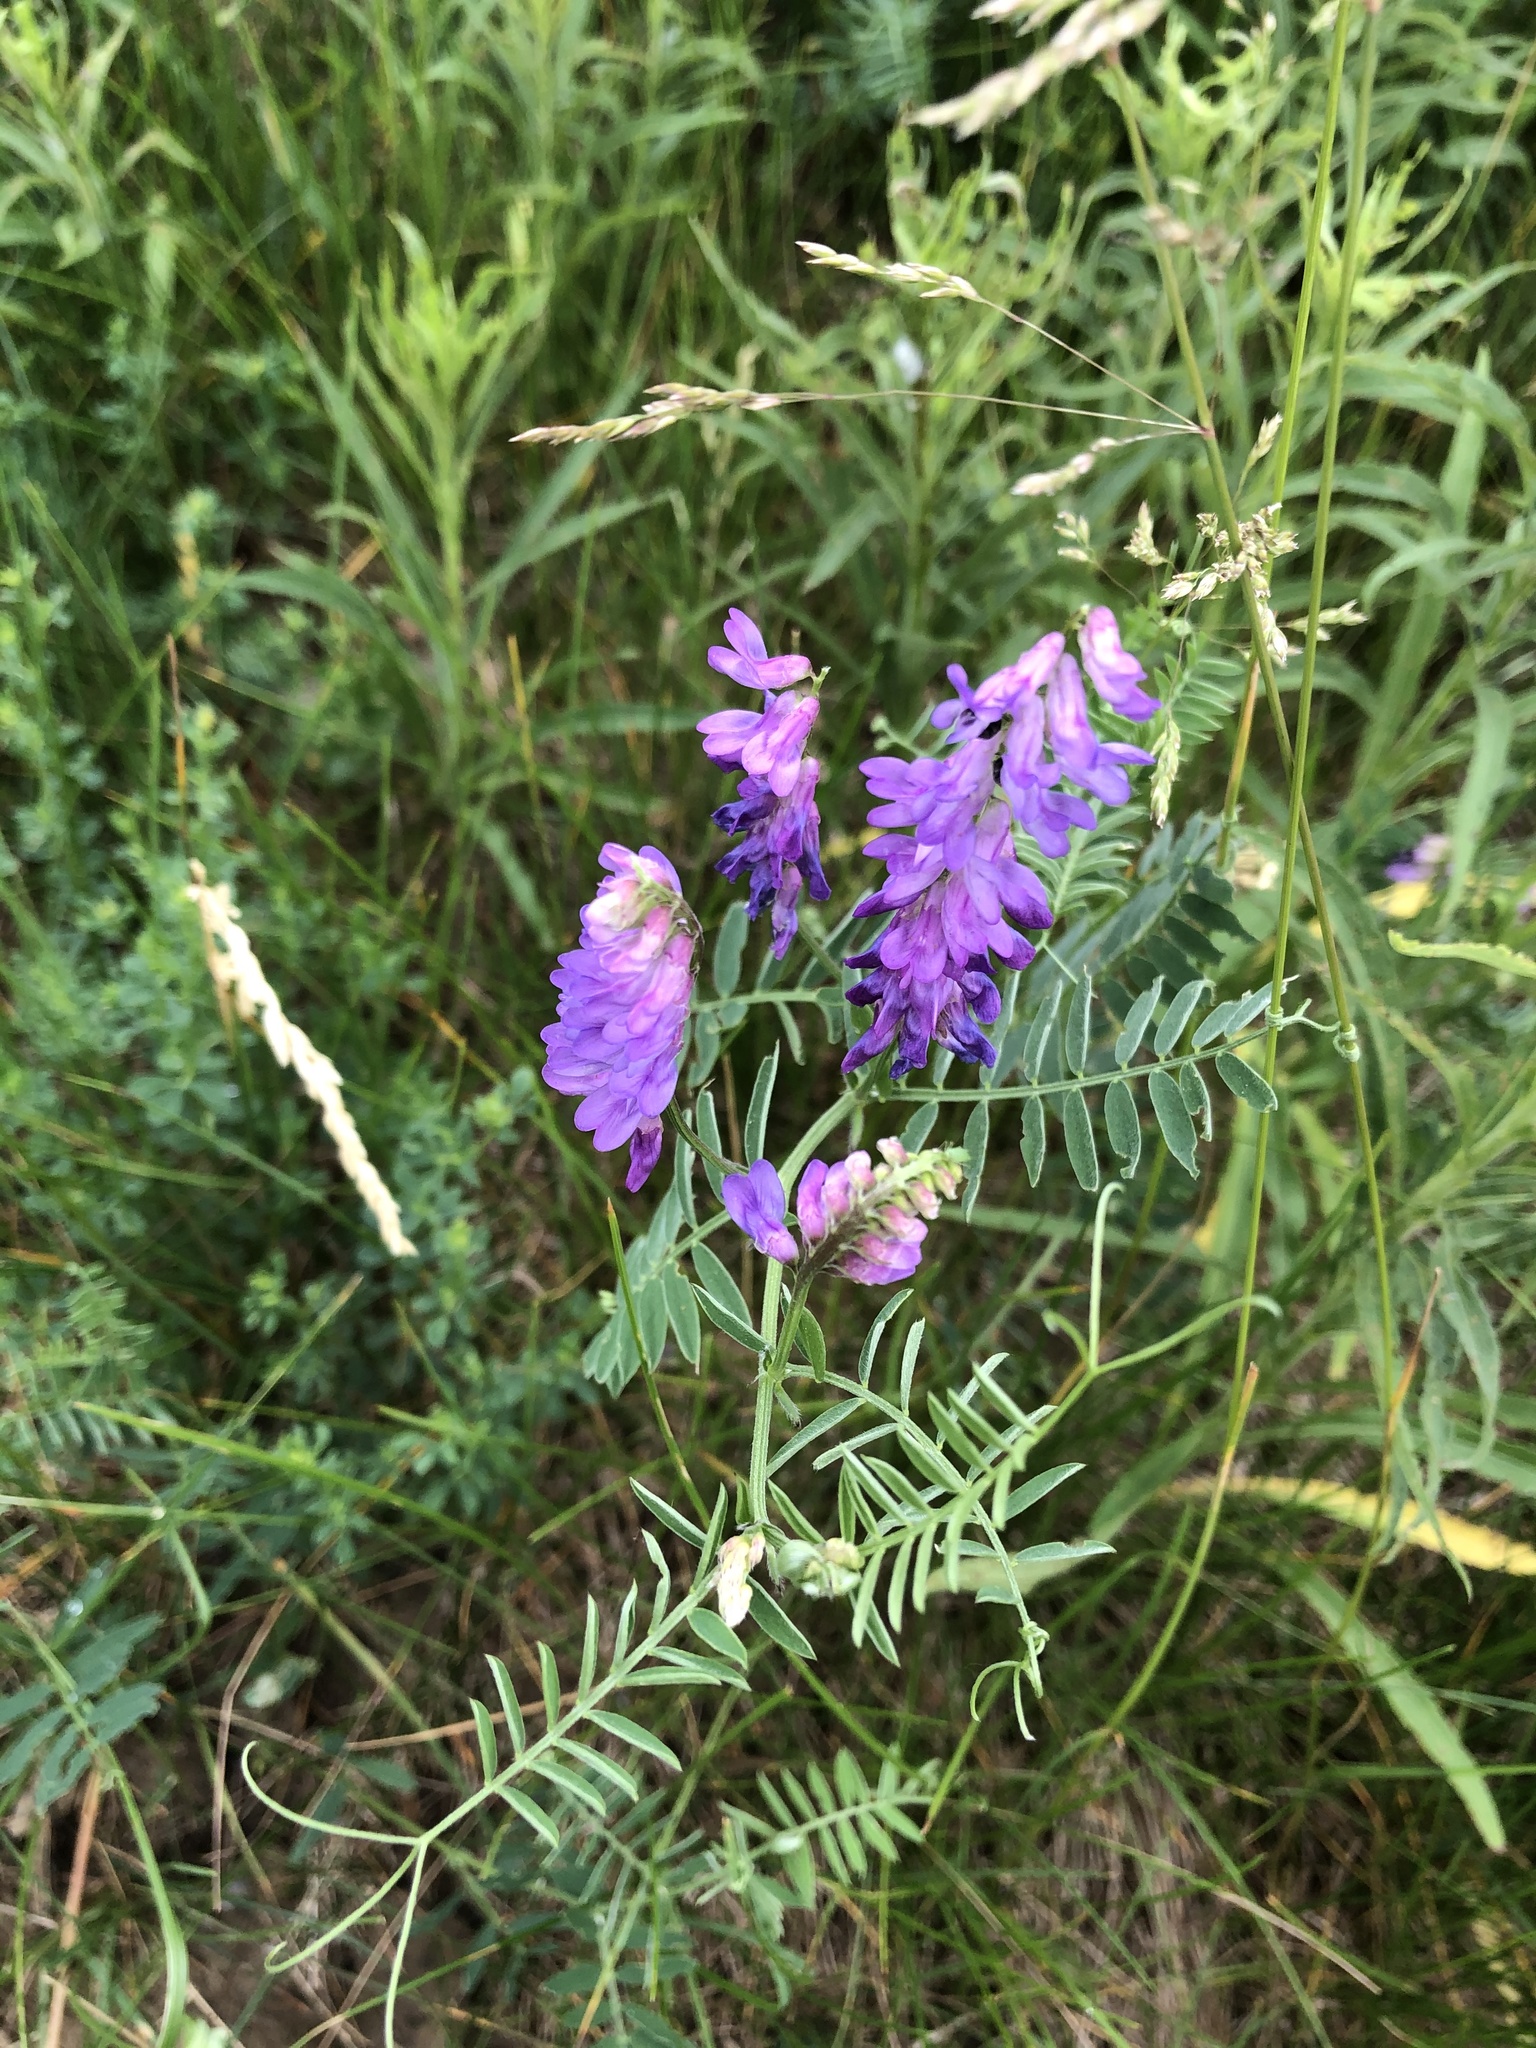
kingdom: Plantae
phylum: Tracheophyta
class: Magnoliopsida
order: Fabales
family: Fabaceae
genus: Vicia
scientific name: Vicia cracca
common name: Bird vetch
